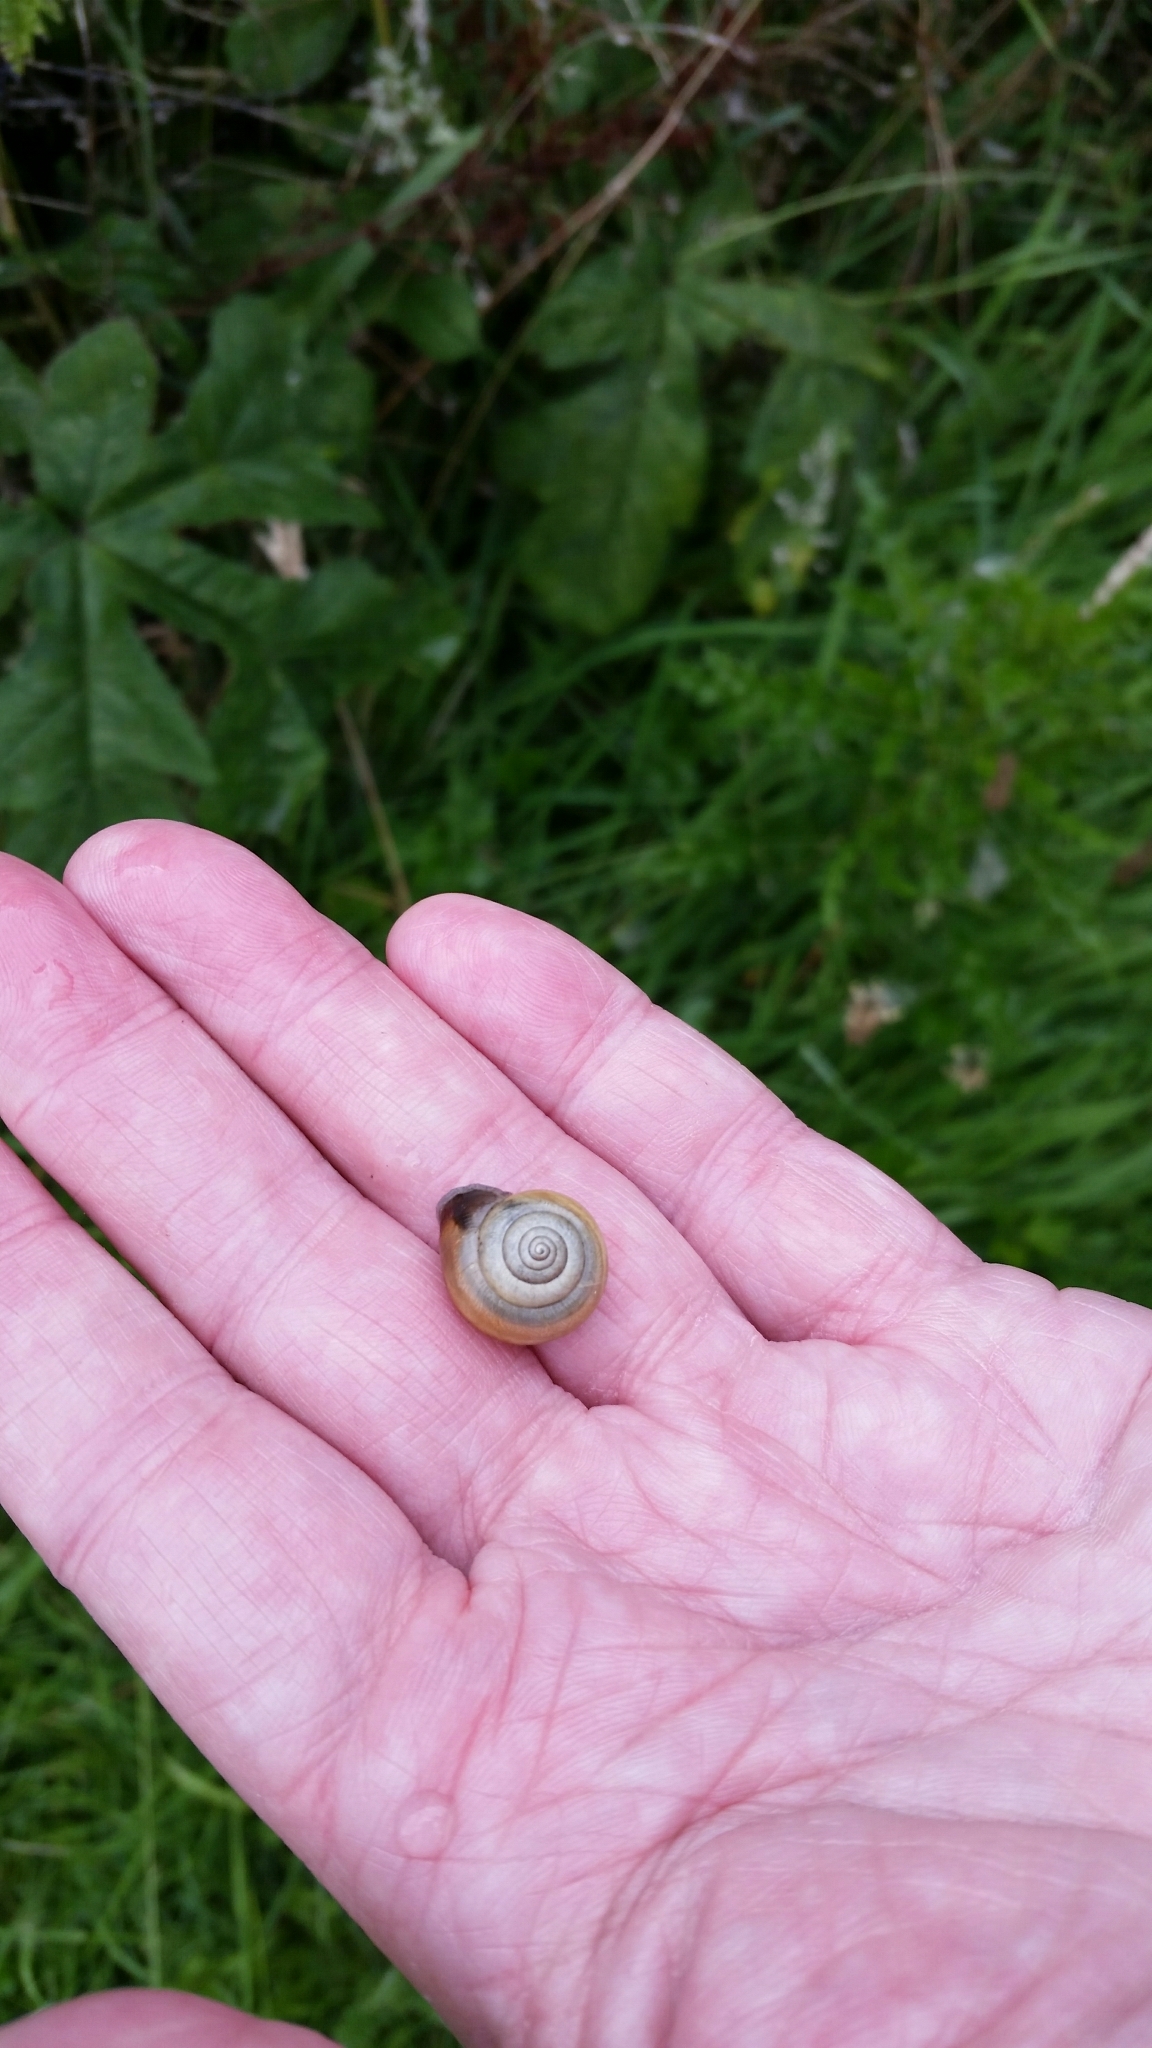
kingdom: Animalia
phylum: Mollusca
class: Gastropoda
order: Stylommatophora
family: Hygromiidae
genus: Monacha
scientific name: Monacha cantiana
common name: Kentish snail
